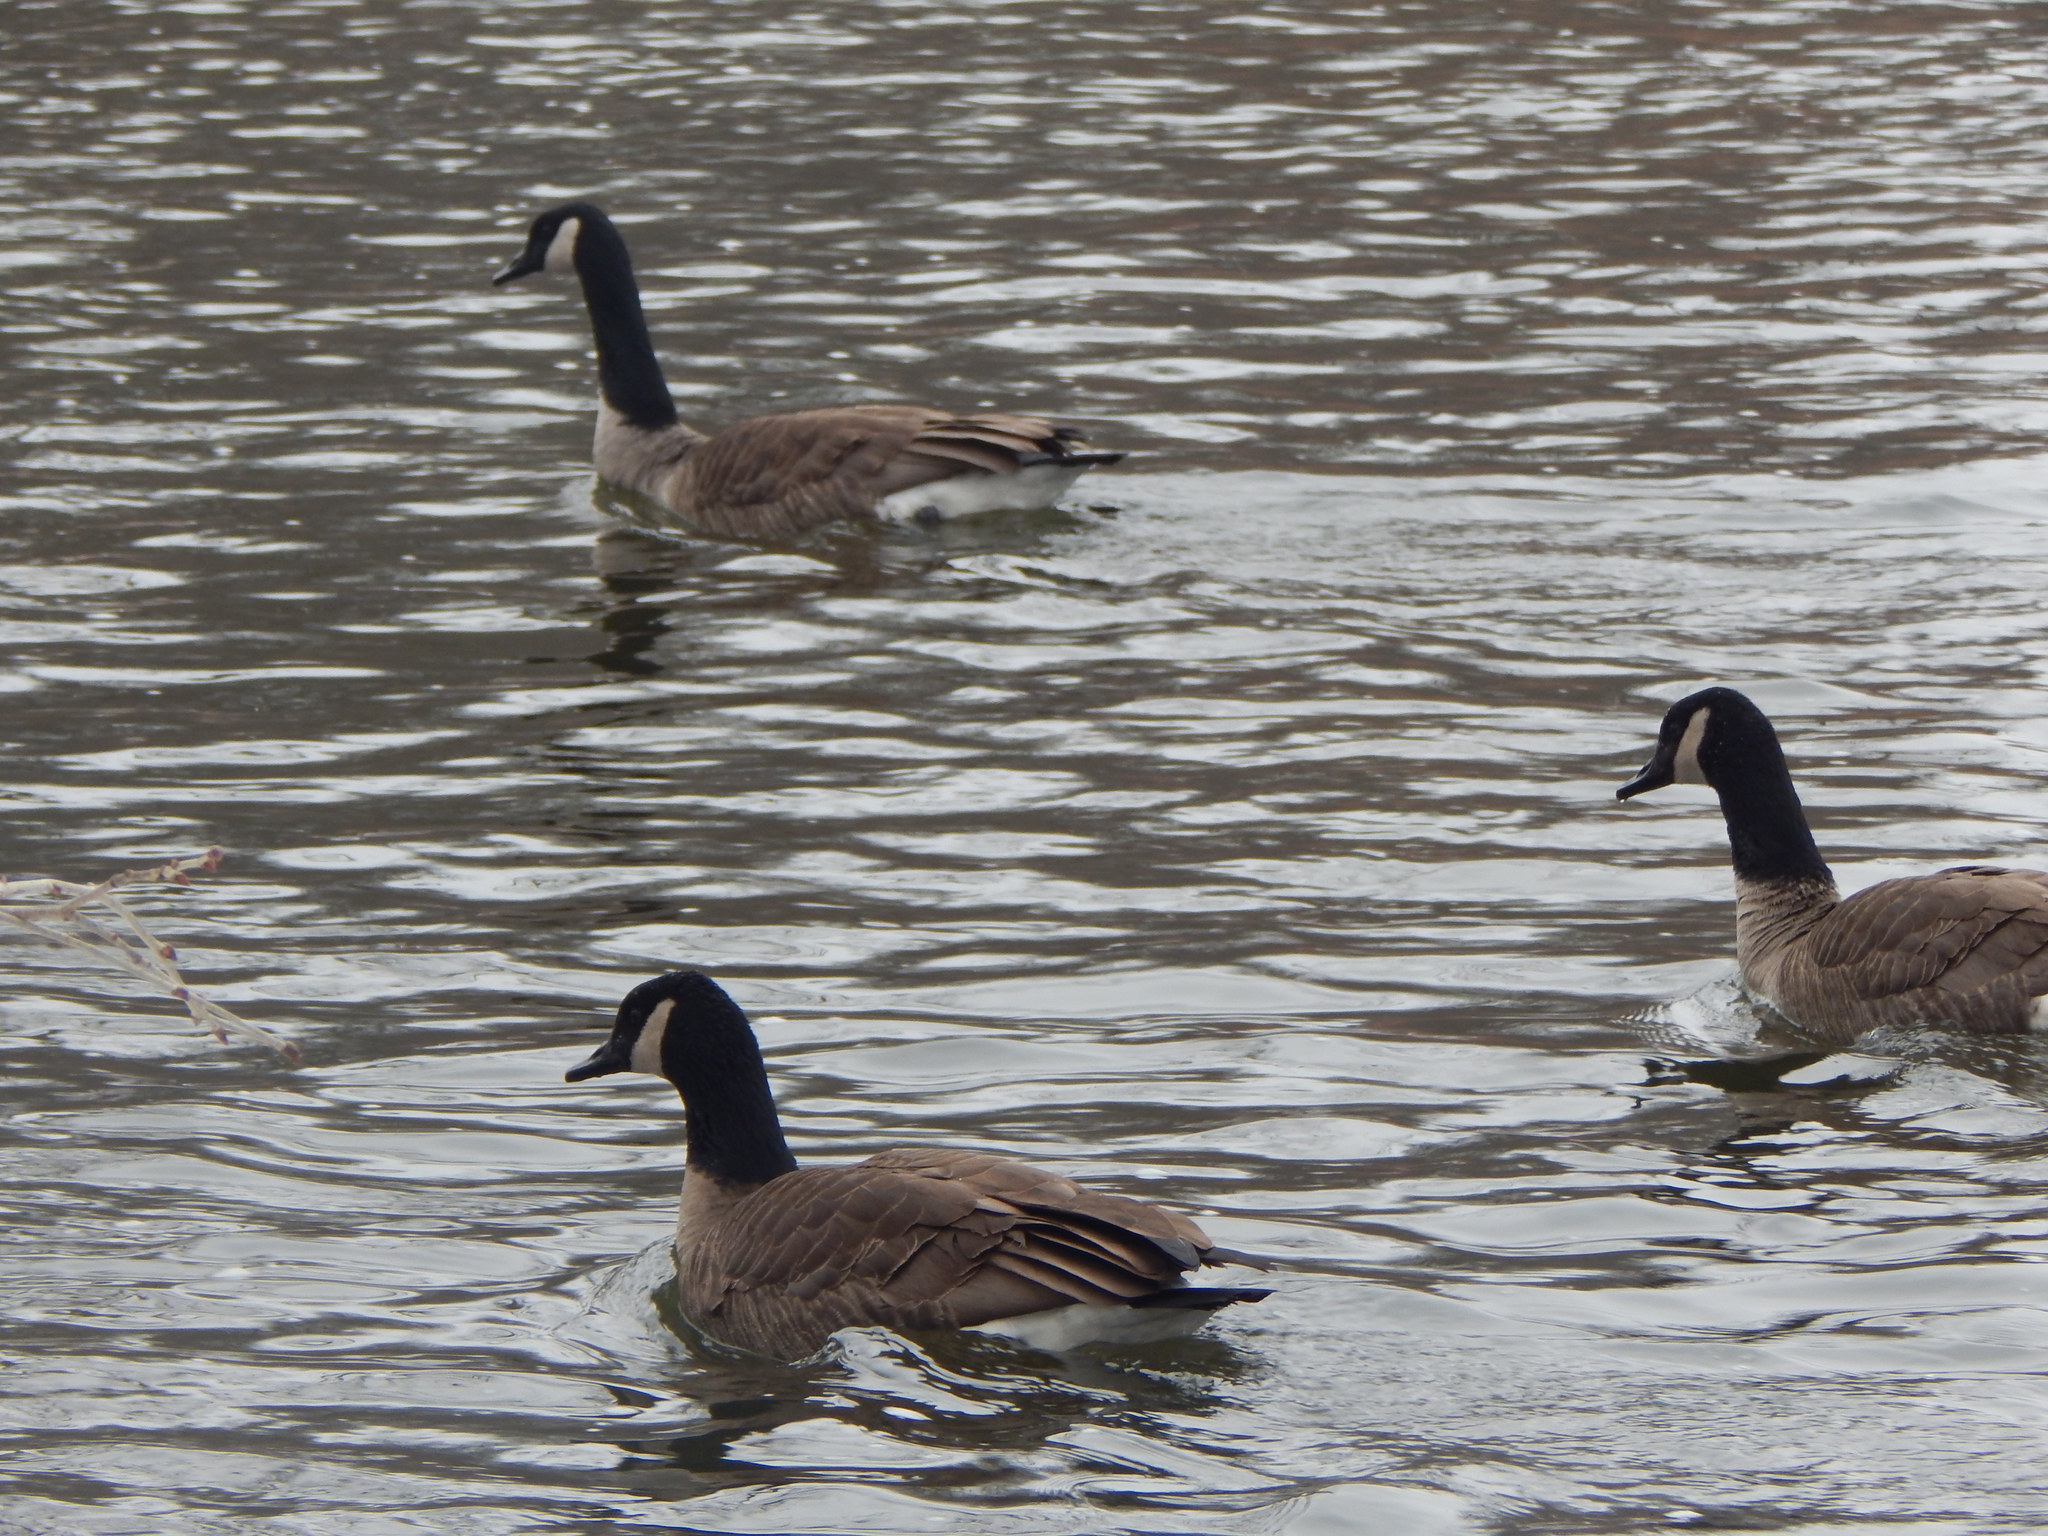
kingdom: Animalia
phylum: Chordata
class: Aves
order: Anseriformes
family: Anatidae
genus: Branta
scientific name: Branta canadensis
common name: Canada goose
